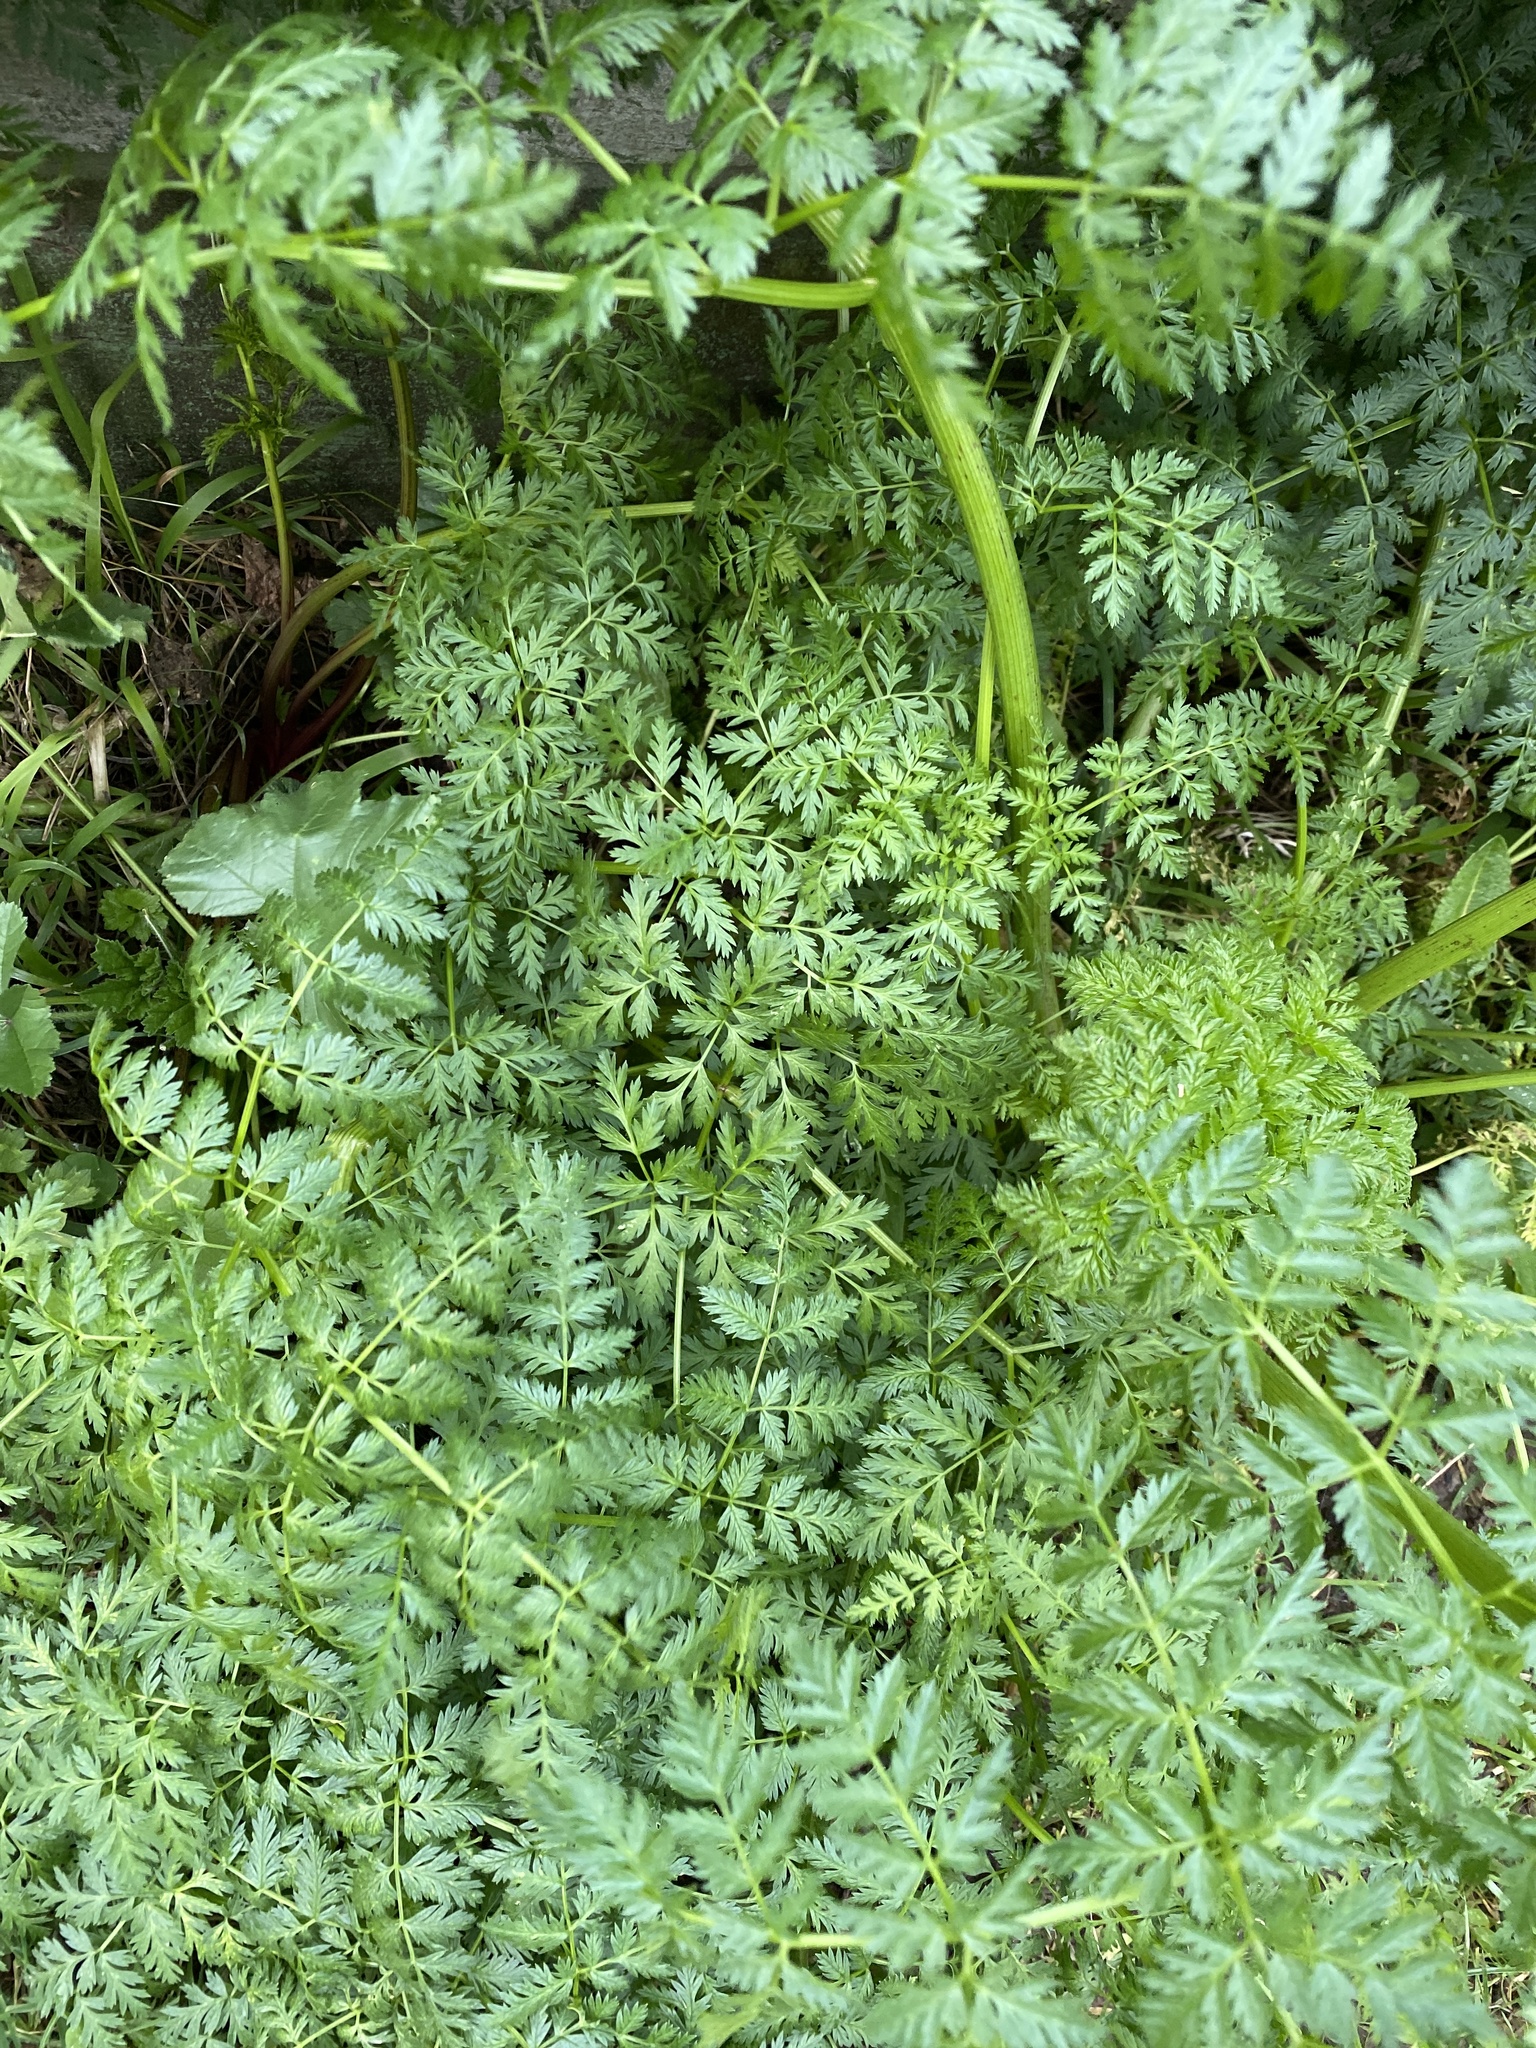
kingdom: Plantae
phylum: Tracheophyta
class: Magnoliopsida
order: Apiales
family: Apiaceae
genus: Conium
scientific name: Conium maculatum
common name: Hemlock
